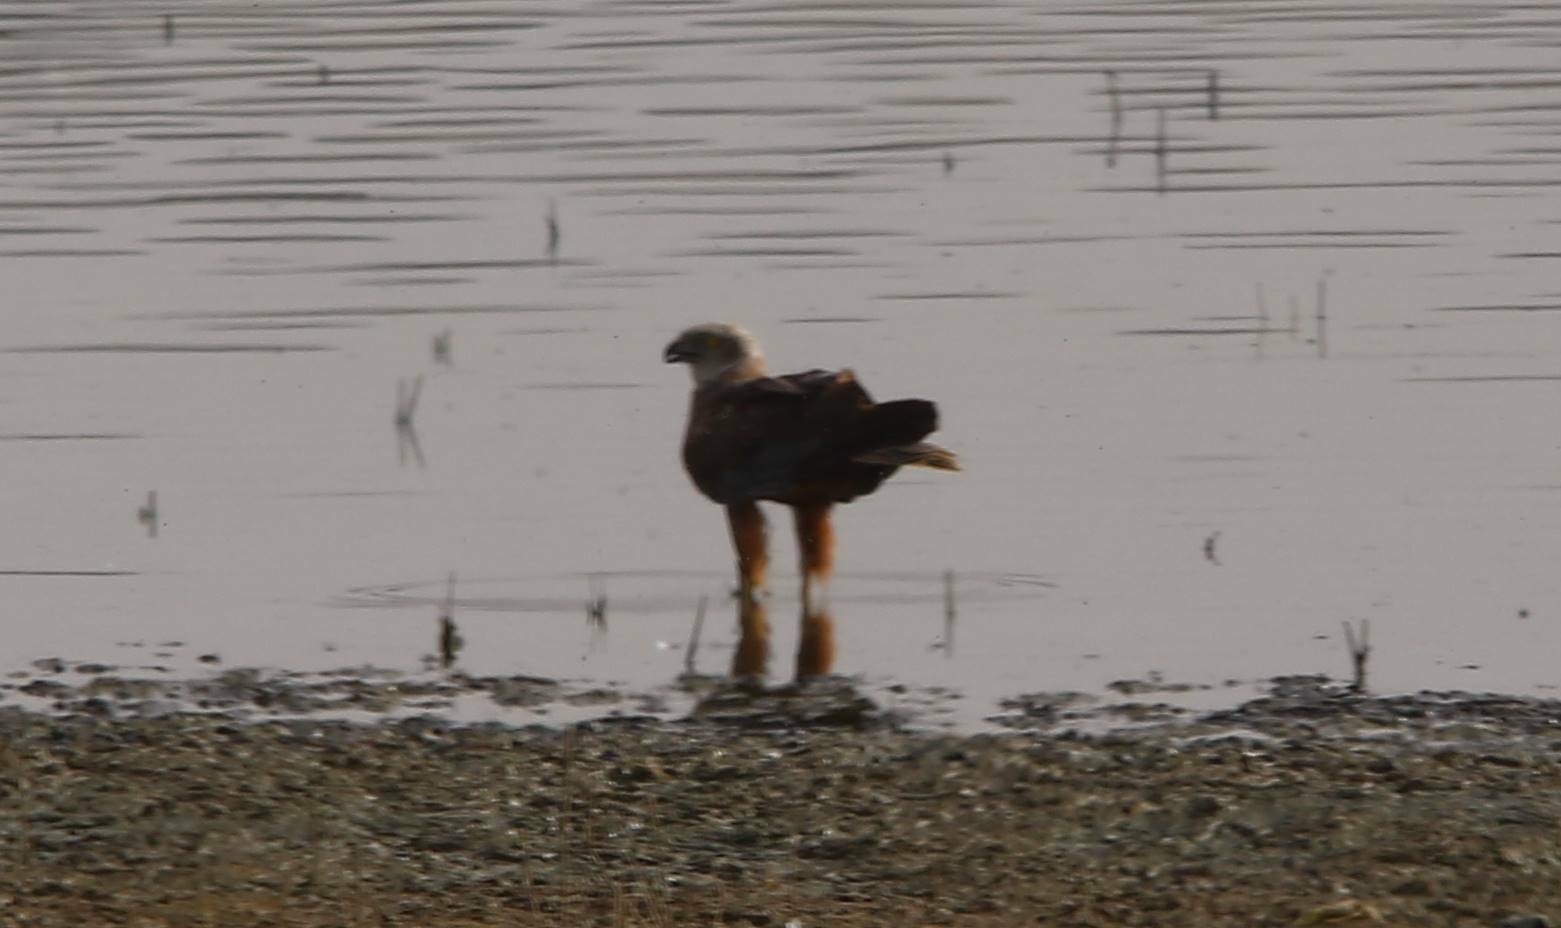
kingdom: Animalia
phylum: Chordata
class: Aves
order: Accipitriformes
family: Accipitridae
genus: Circus
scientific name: Circus aeruginosus
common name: Western marsh harrier
